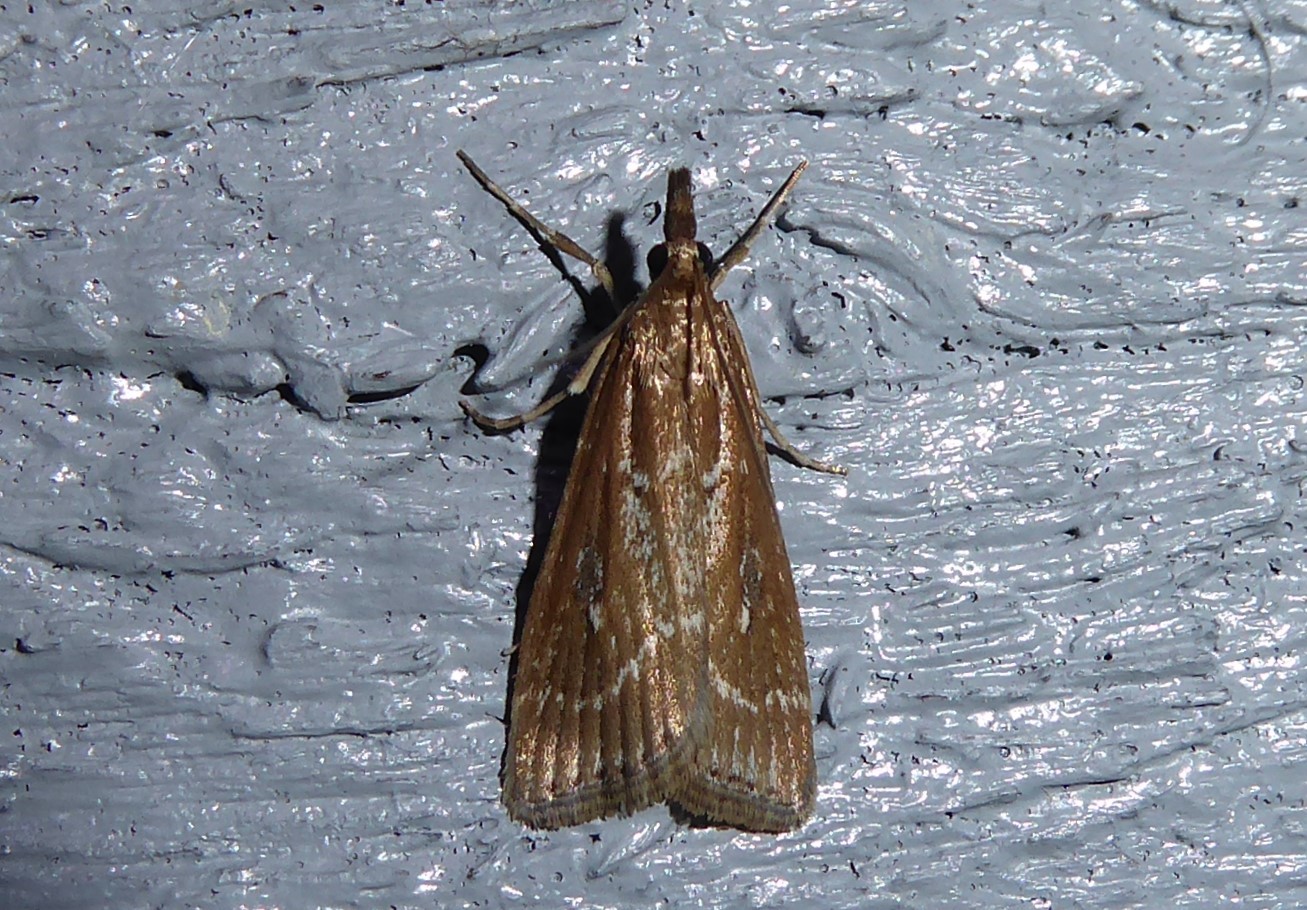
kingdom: Animalia
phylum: Arthropoda
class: Insecta
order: Lepidoptera
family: Crambidae
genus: Eudonia
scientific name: Eudonia octophora
